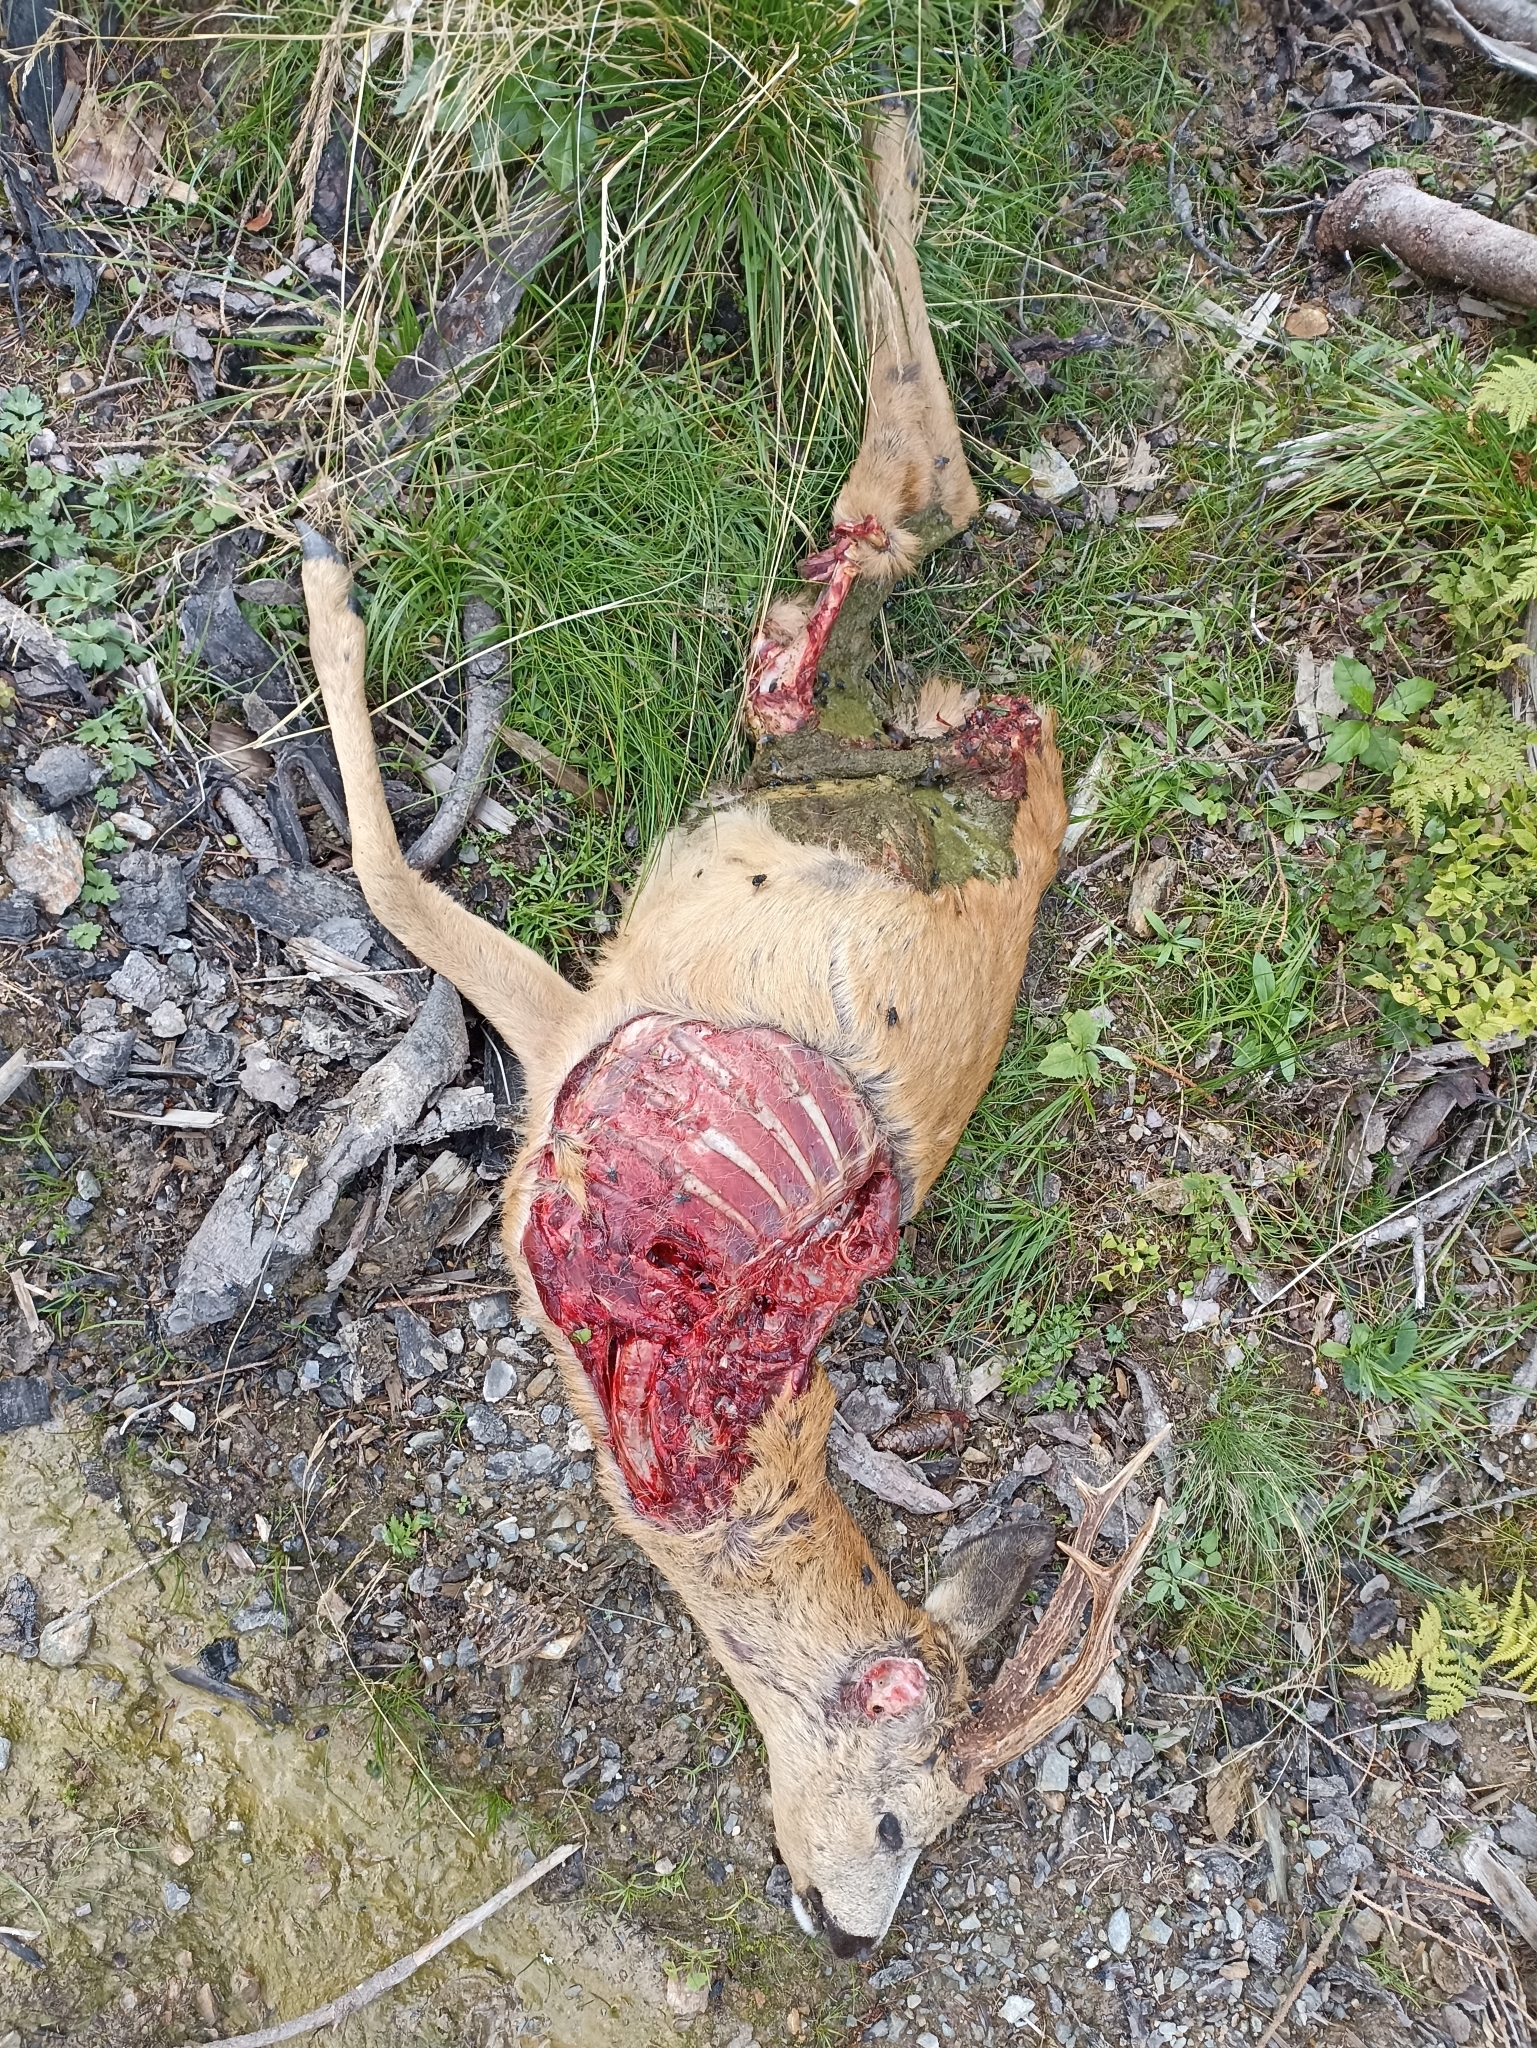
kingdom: Animalia
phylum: Chordata
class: Mammalia
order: Artiodactyla
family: Cervidae
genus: Capreolus
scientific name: Capreolus capreolus
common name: Western roe deer
